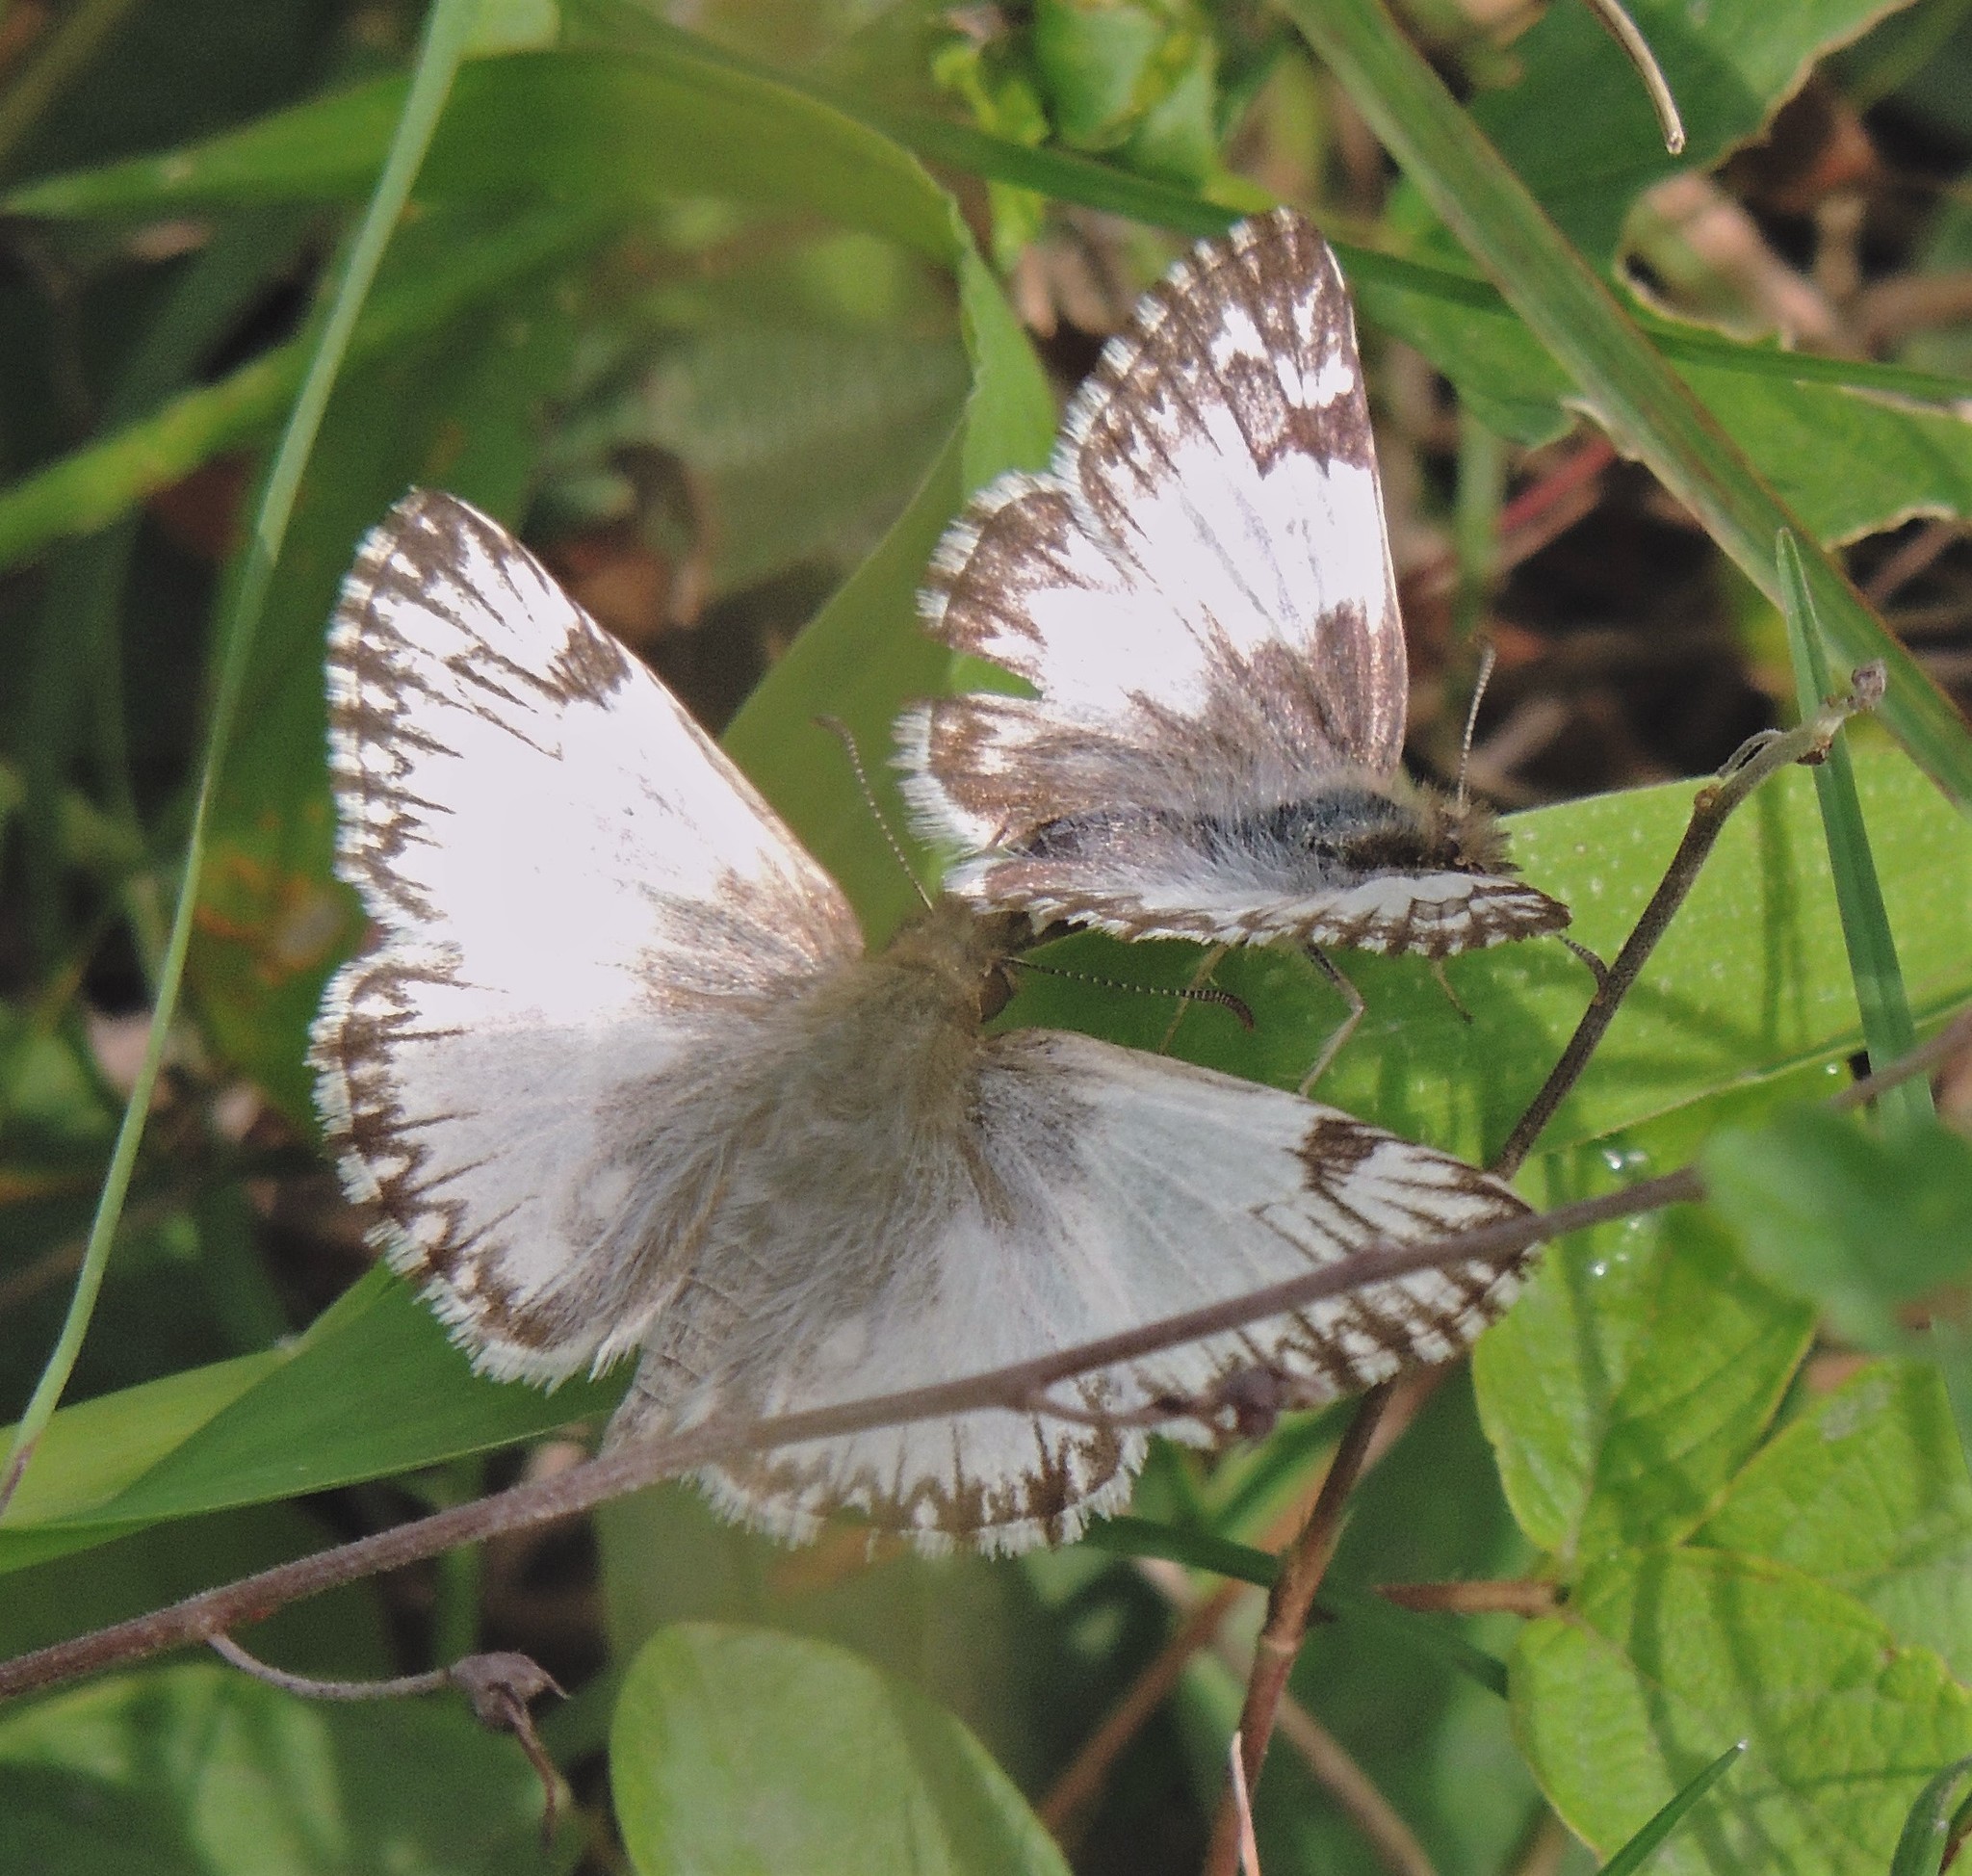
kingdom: Animalia
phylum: Arthropoda
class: Insecta
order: Lepidoptera
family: Hesperiidae
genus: Heliopetes
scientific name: Heliopetes omrina
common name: Stained white-skipper
